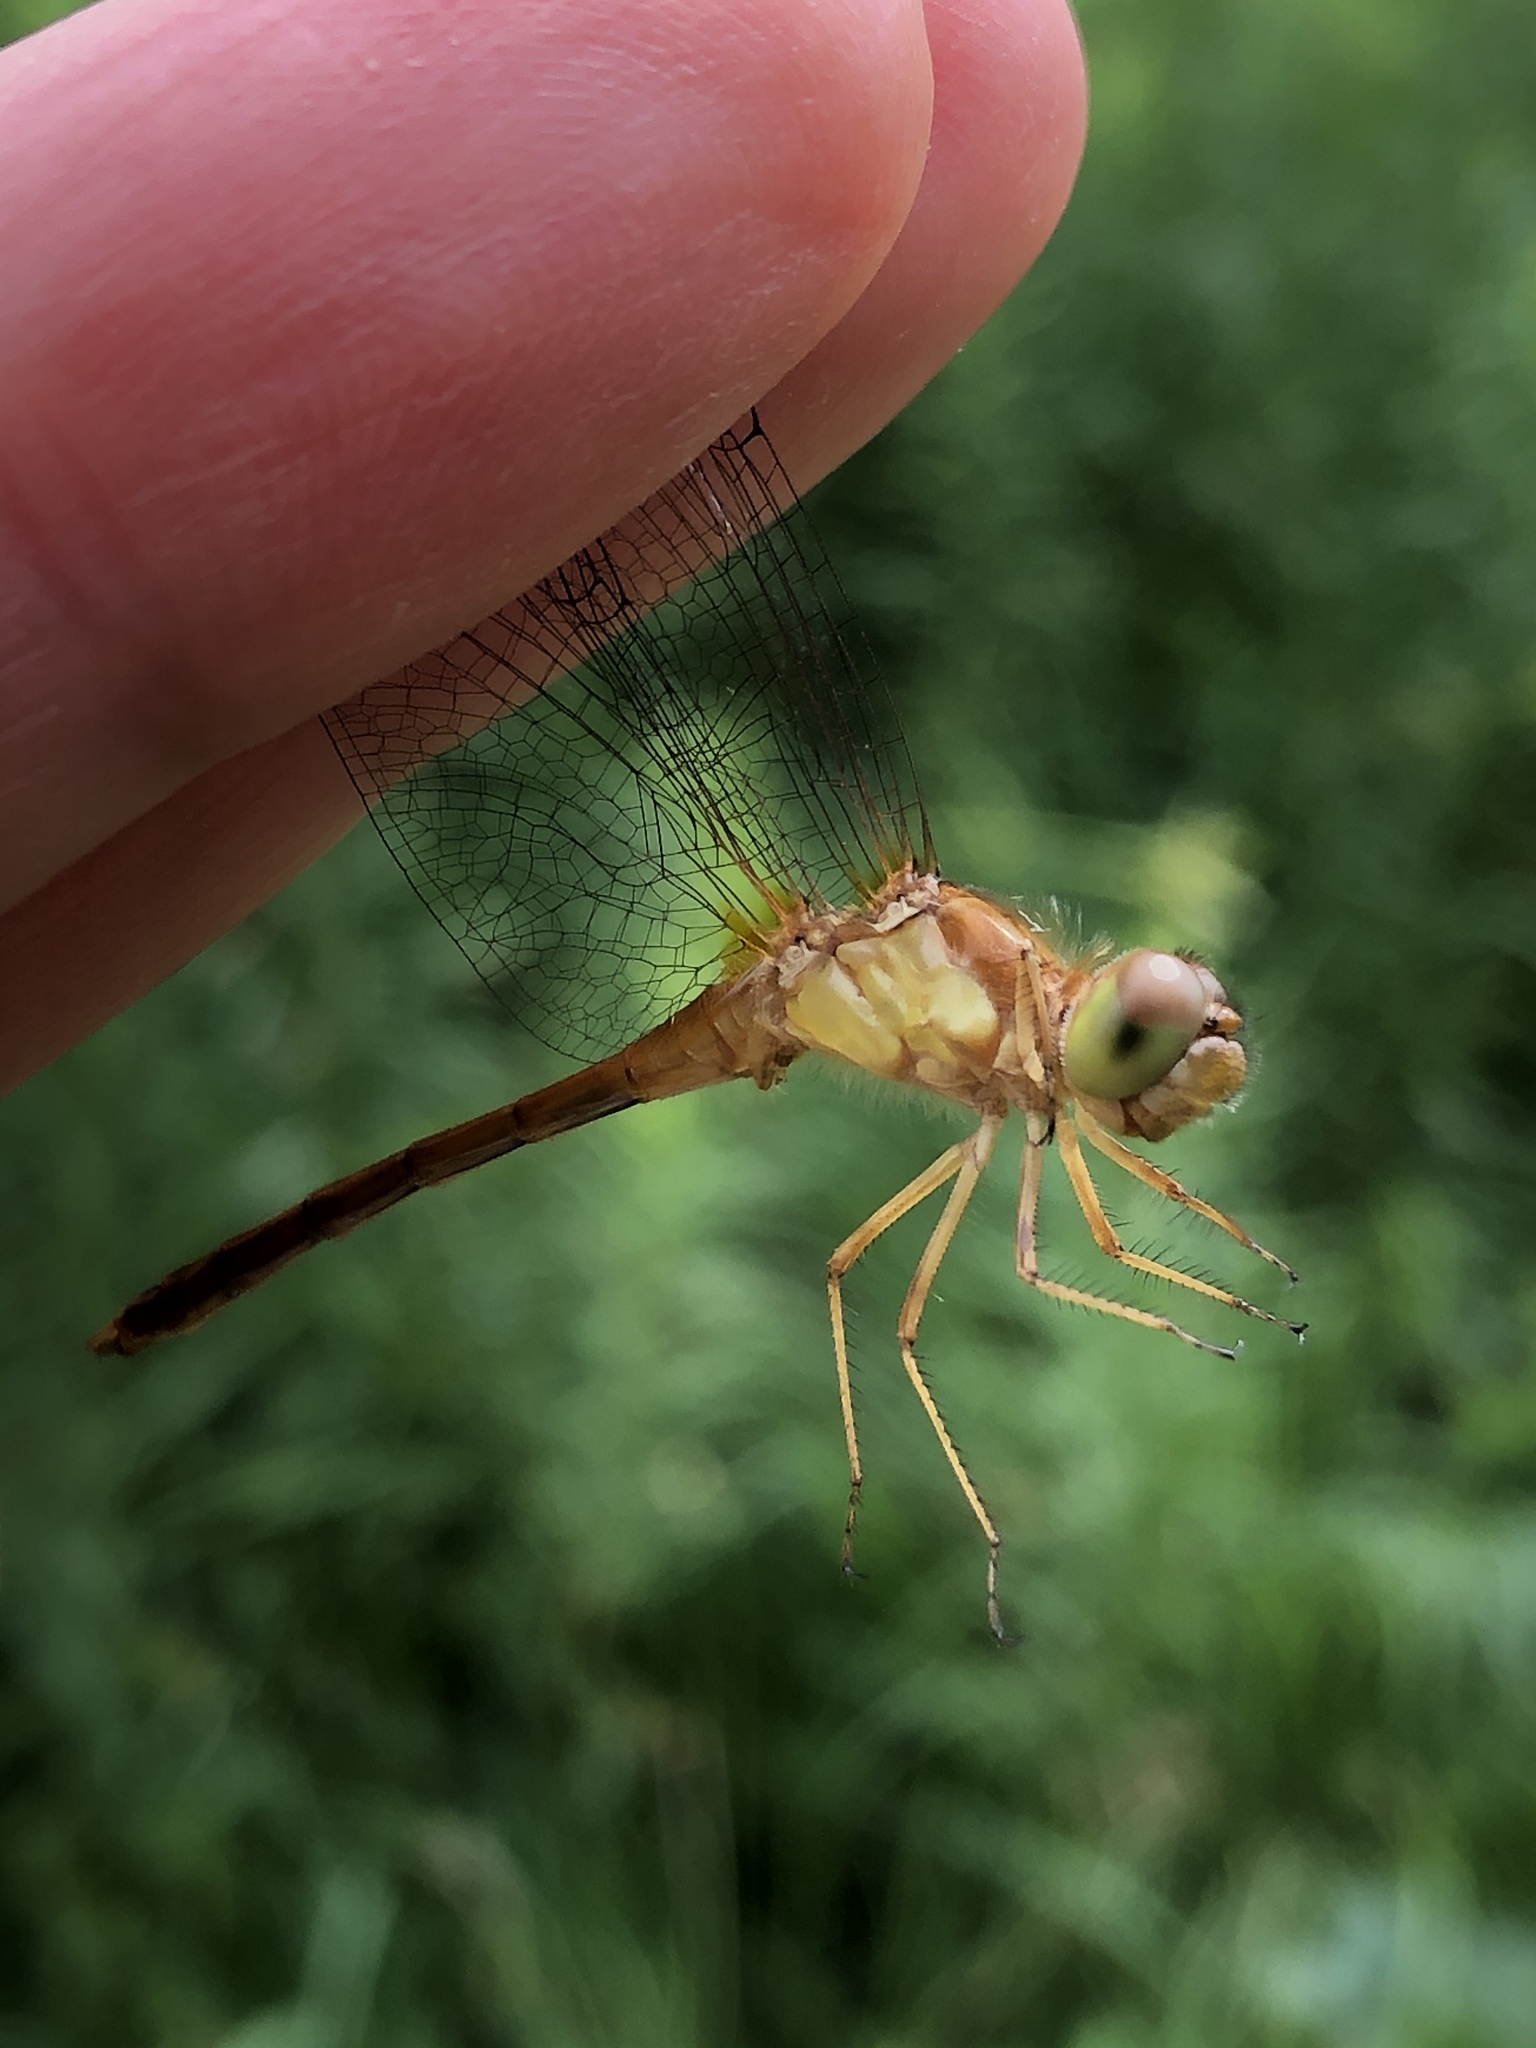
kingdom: Animalia
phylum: Arthropoda
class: Insecta
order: Odonata
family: Libellulidae
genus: Sympetrum
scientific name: Sympetrum vicinum
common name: Autumn meadowhawk
